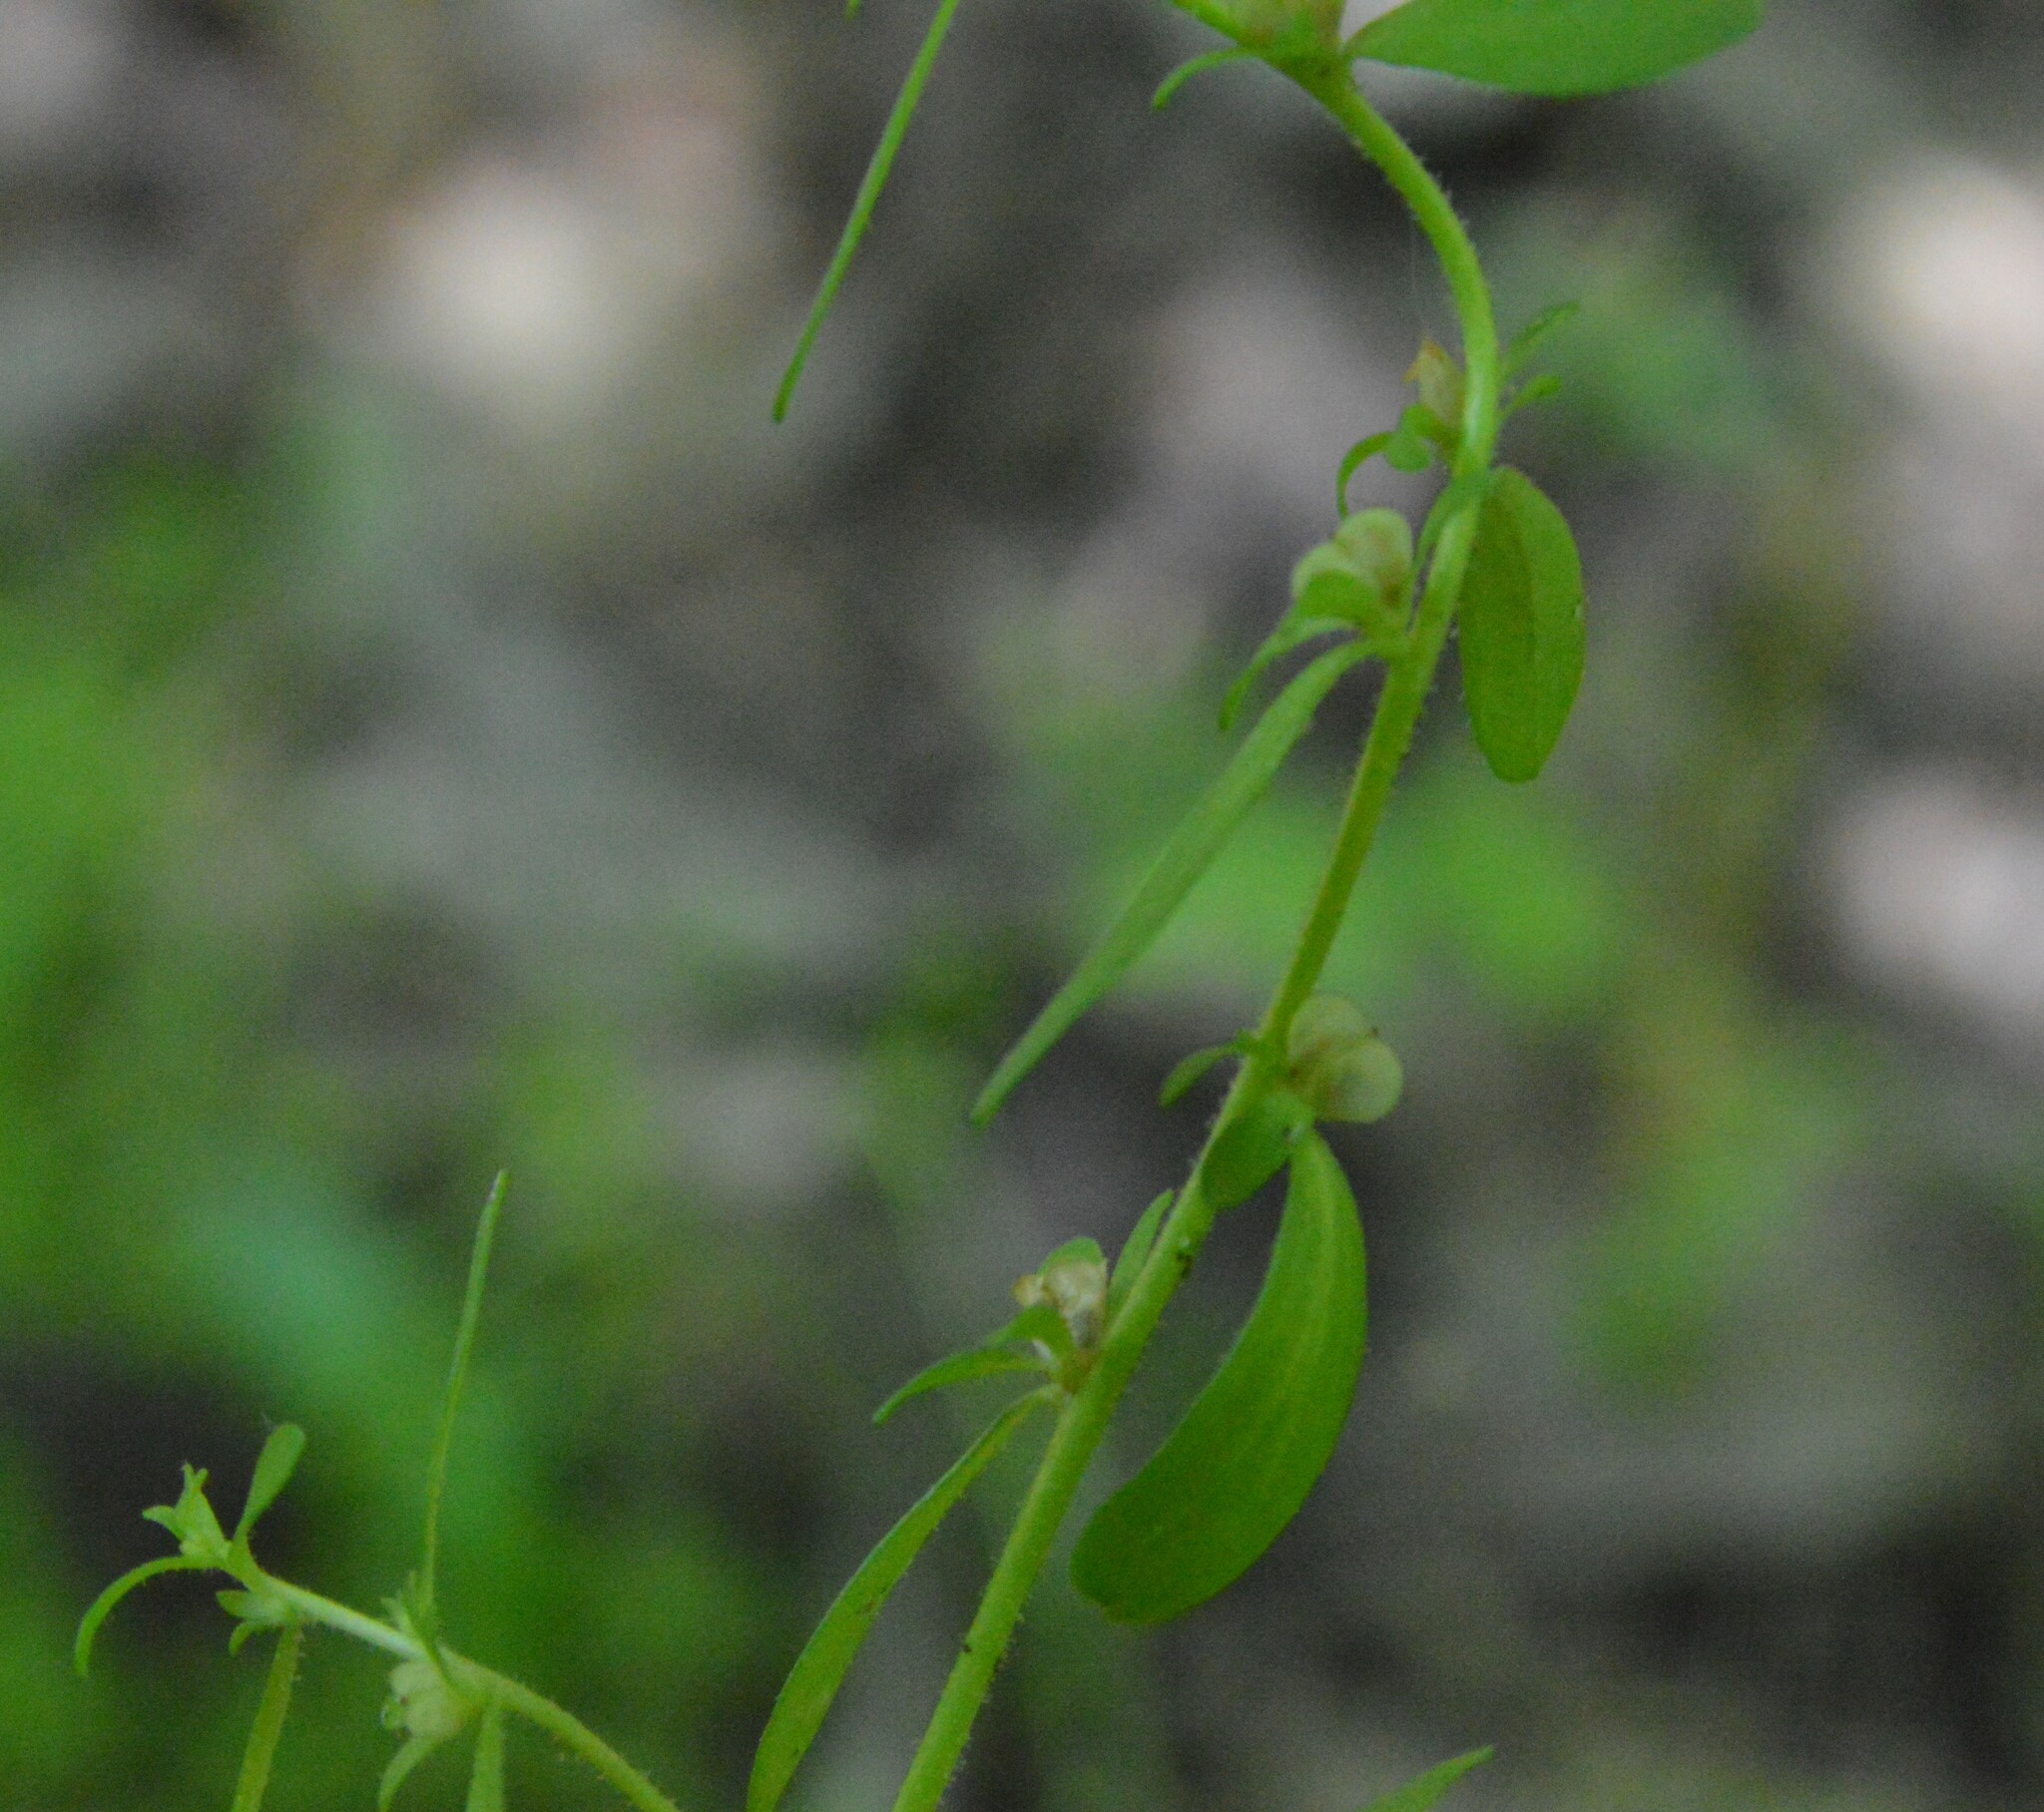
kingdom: Plantae
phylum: Tracheophyta
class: Magnoliopsida
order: Lamiales
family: Plantaginaceae
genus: Veronica
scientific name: Veronica peregrina
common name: Neckweed
